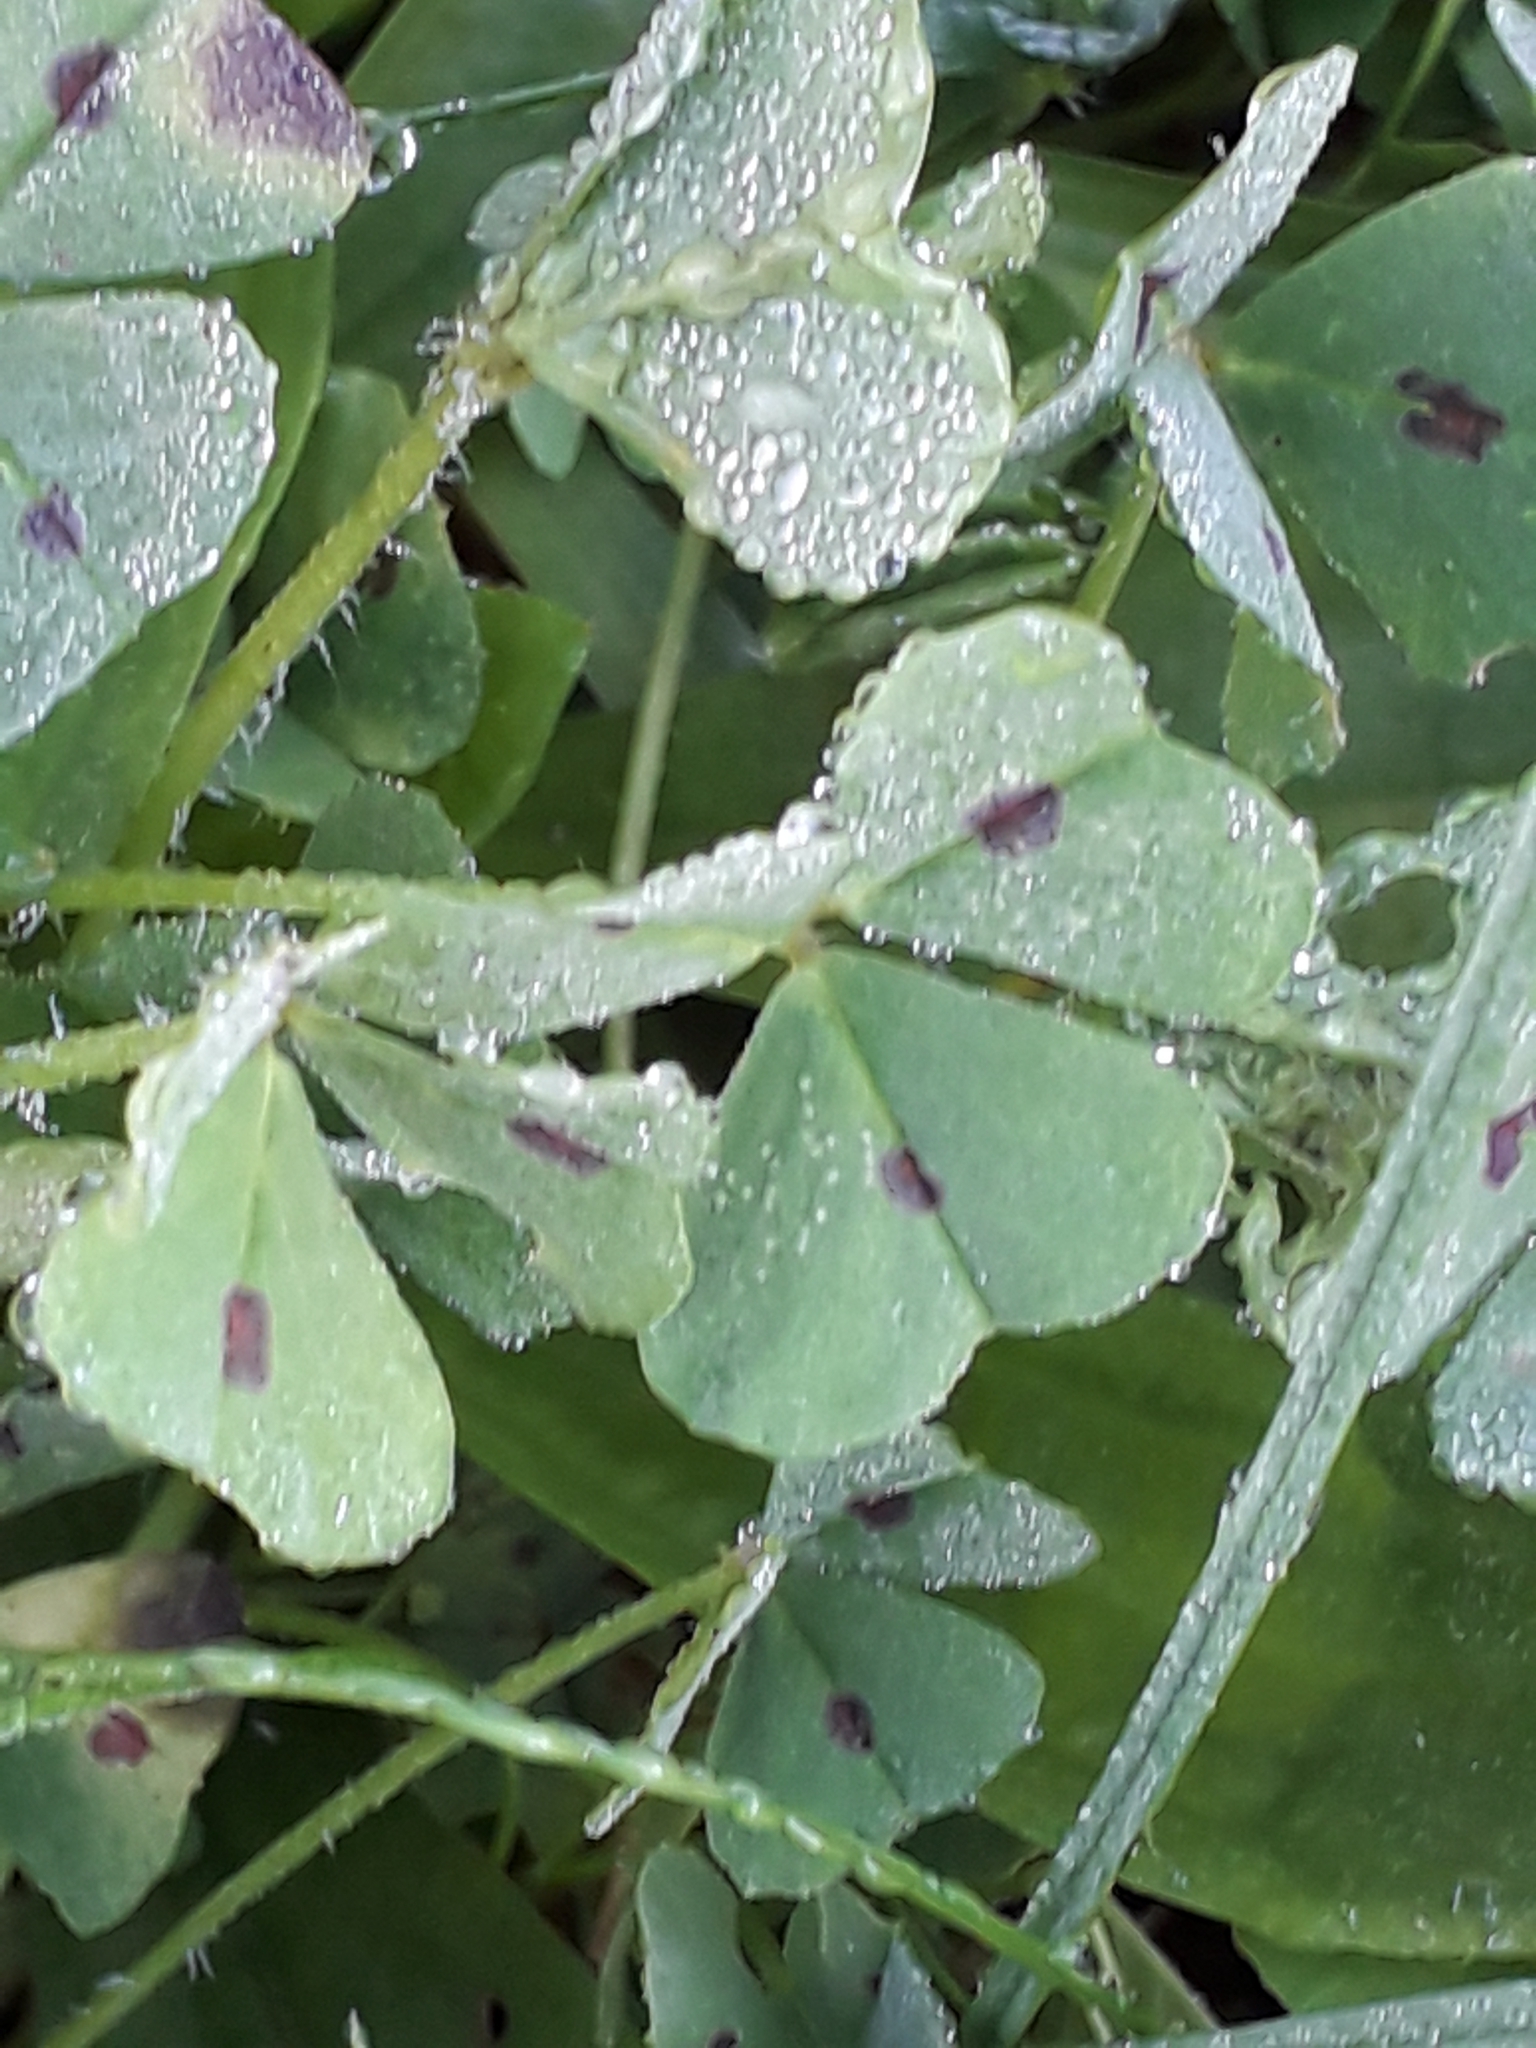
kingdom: Plantae
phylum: Tracheophyta
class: Magnoliopsida
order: Fabales
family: Fabaceae
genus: Medicago
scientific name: Medicago arabica
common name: Spotted medick
